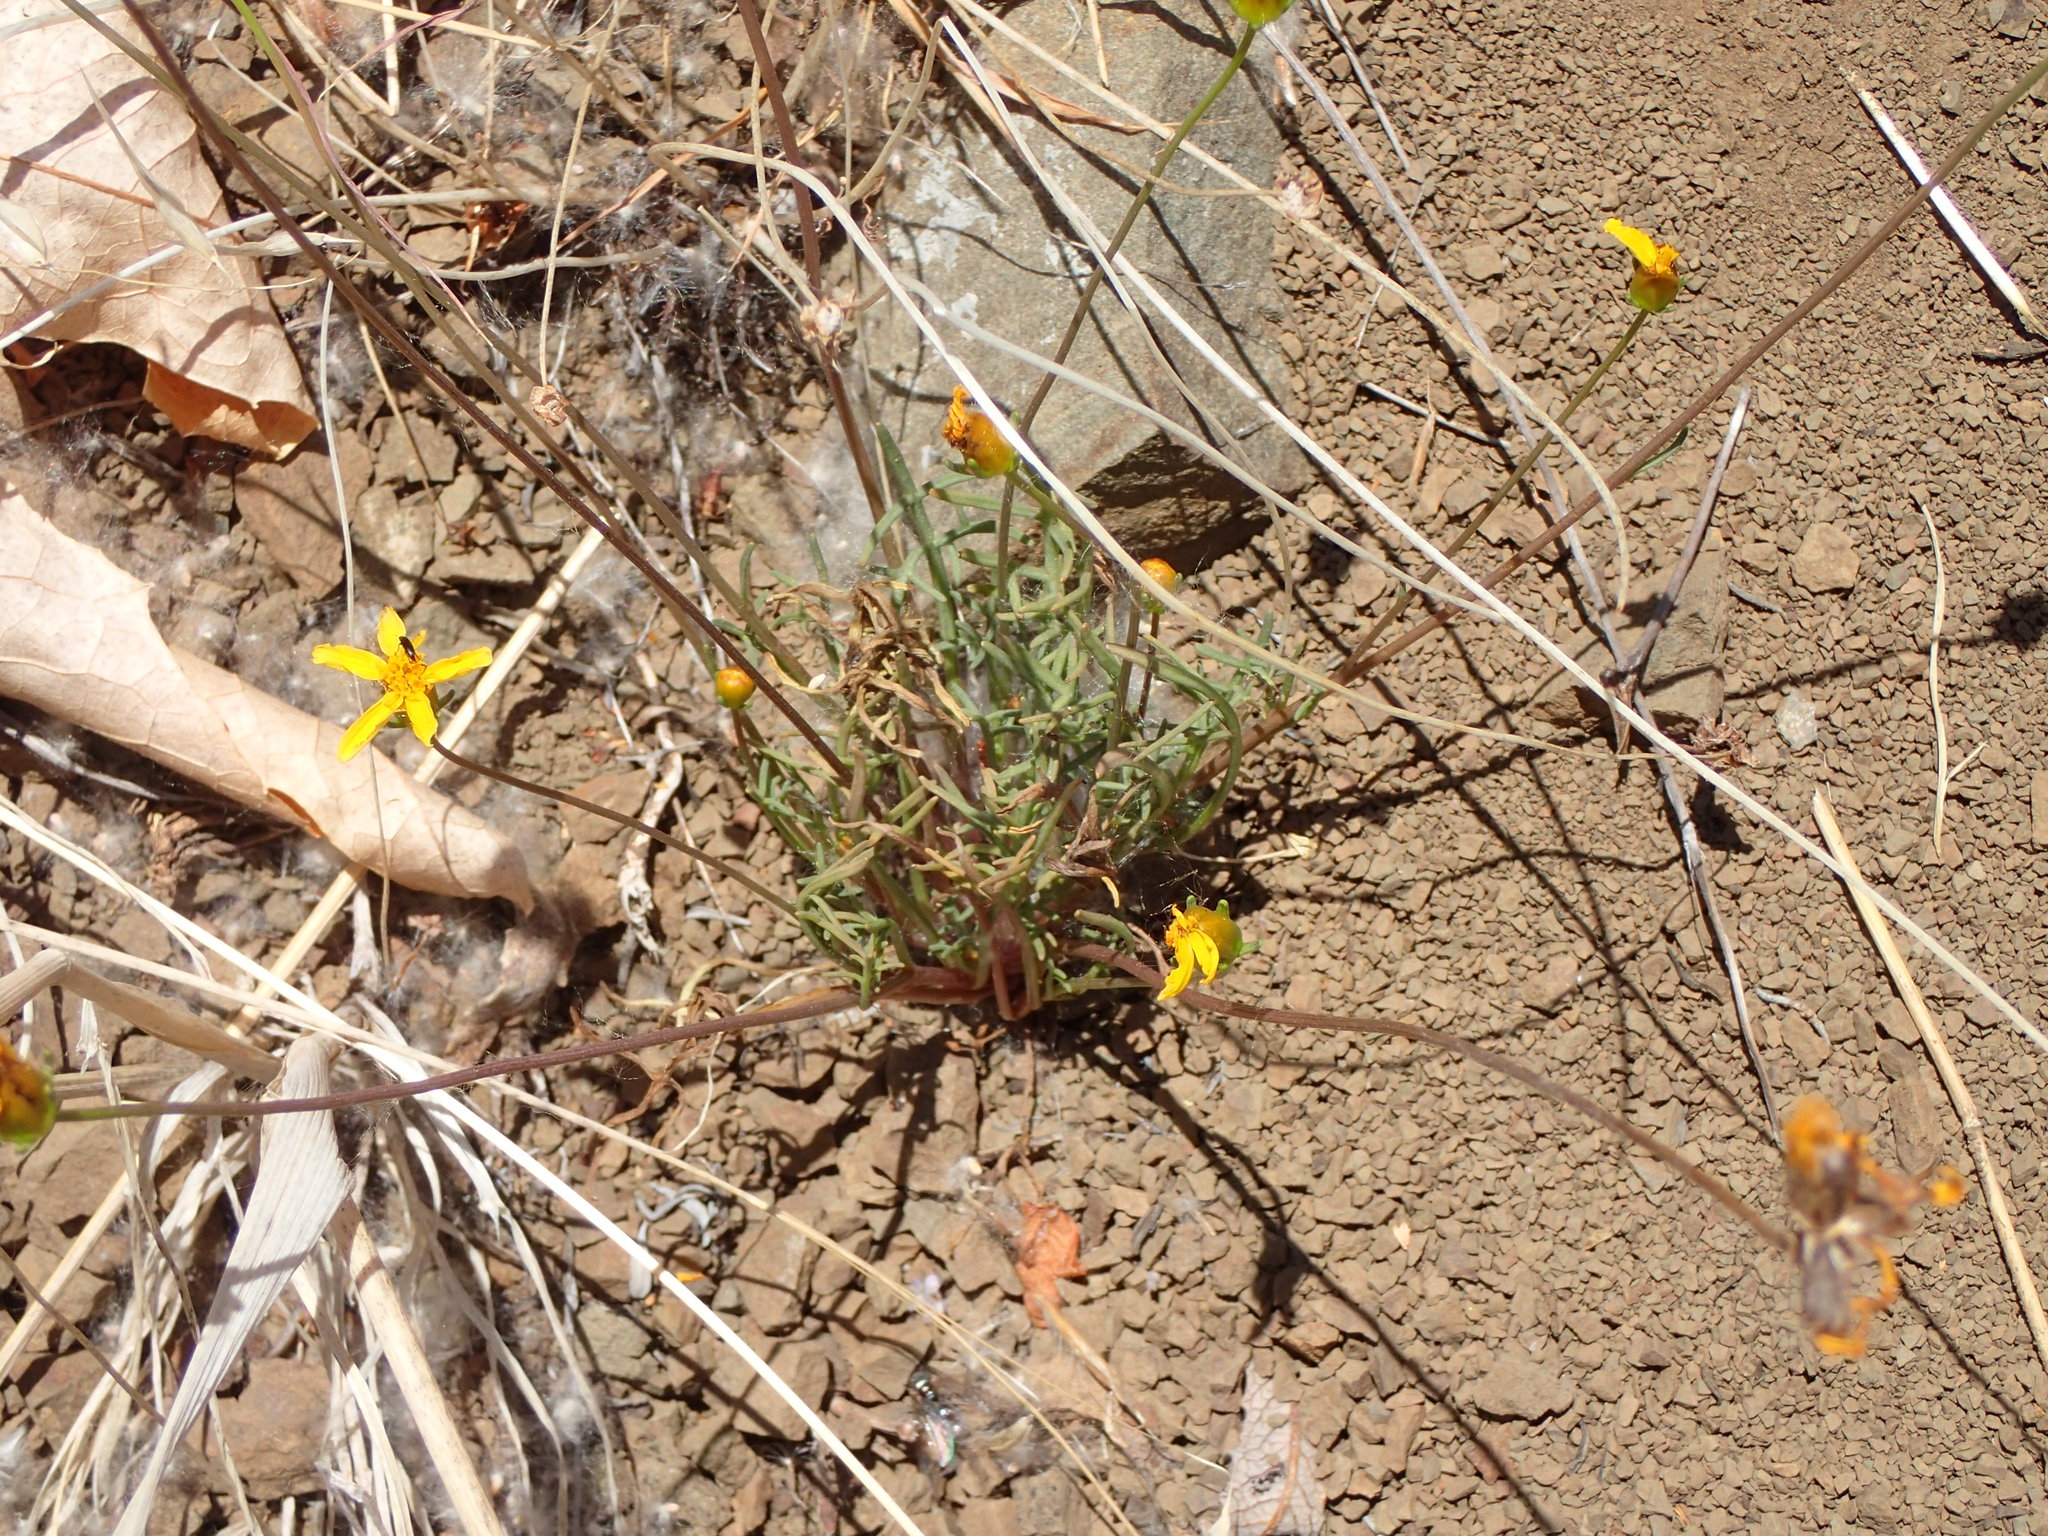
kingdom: Plantae
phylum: Tracheophyta
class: Magnoliopsida
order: Asterales
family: Asteraceae
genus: Coreopsis
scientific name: Coreopsis bigelovii
